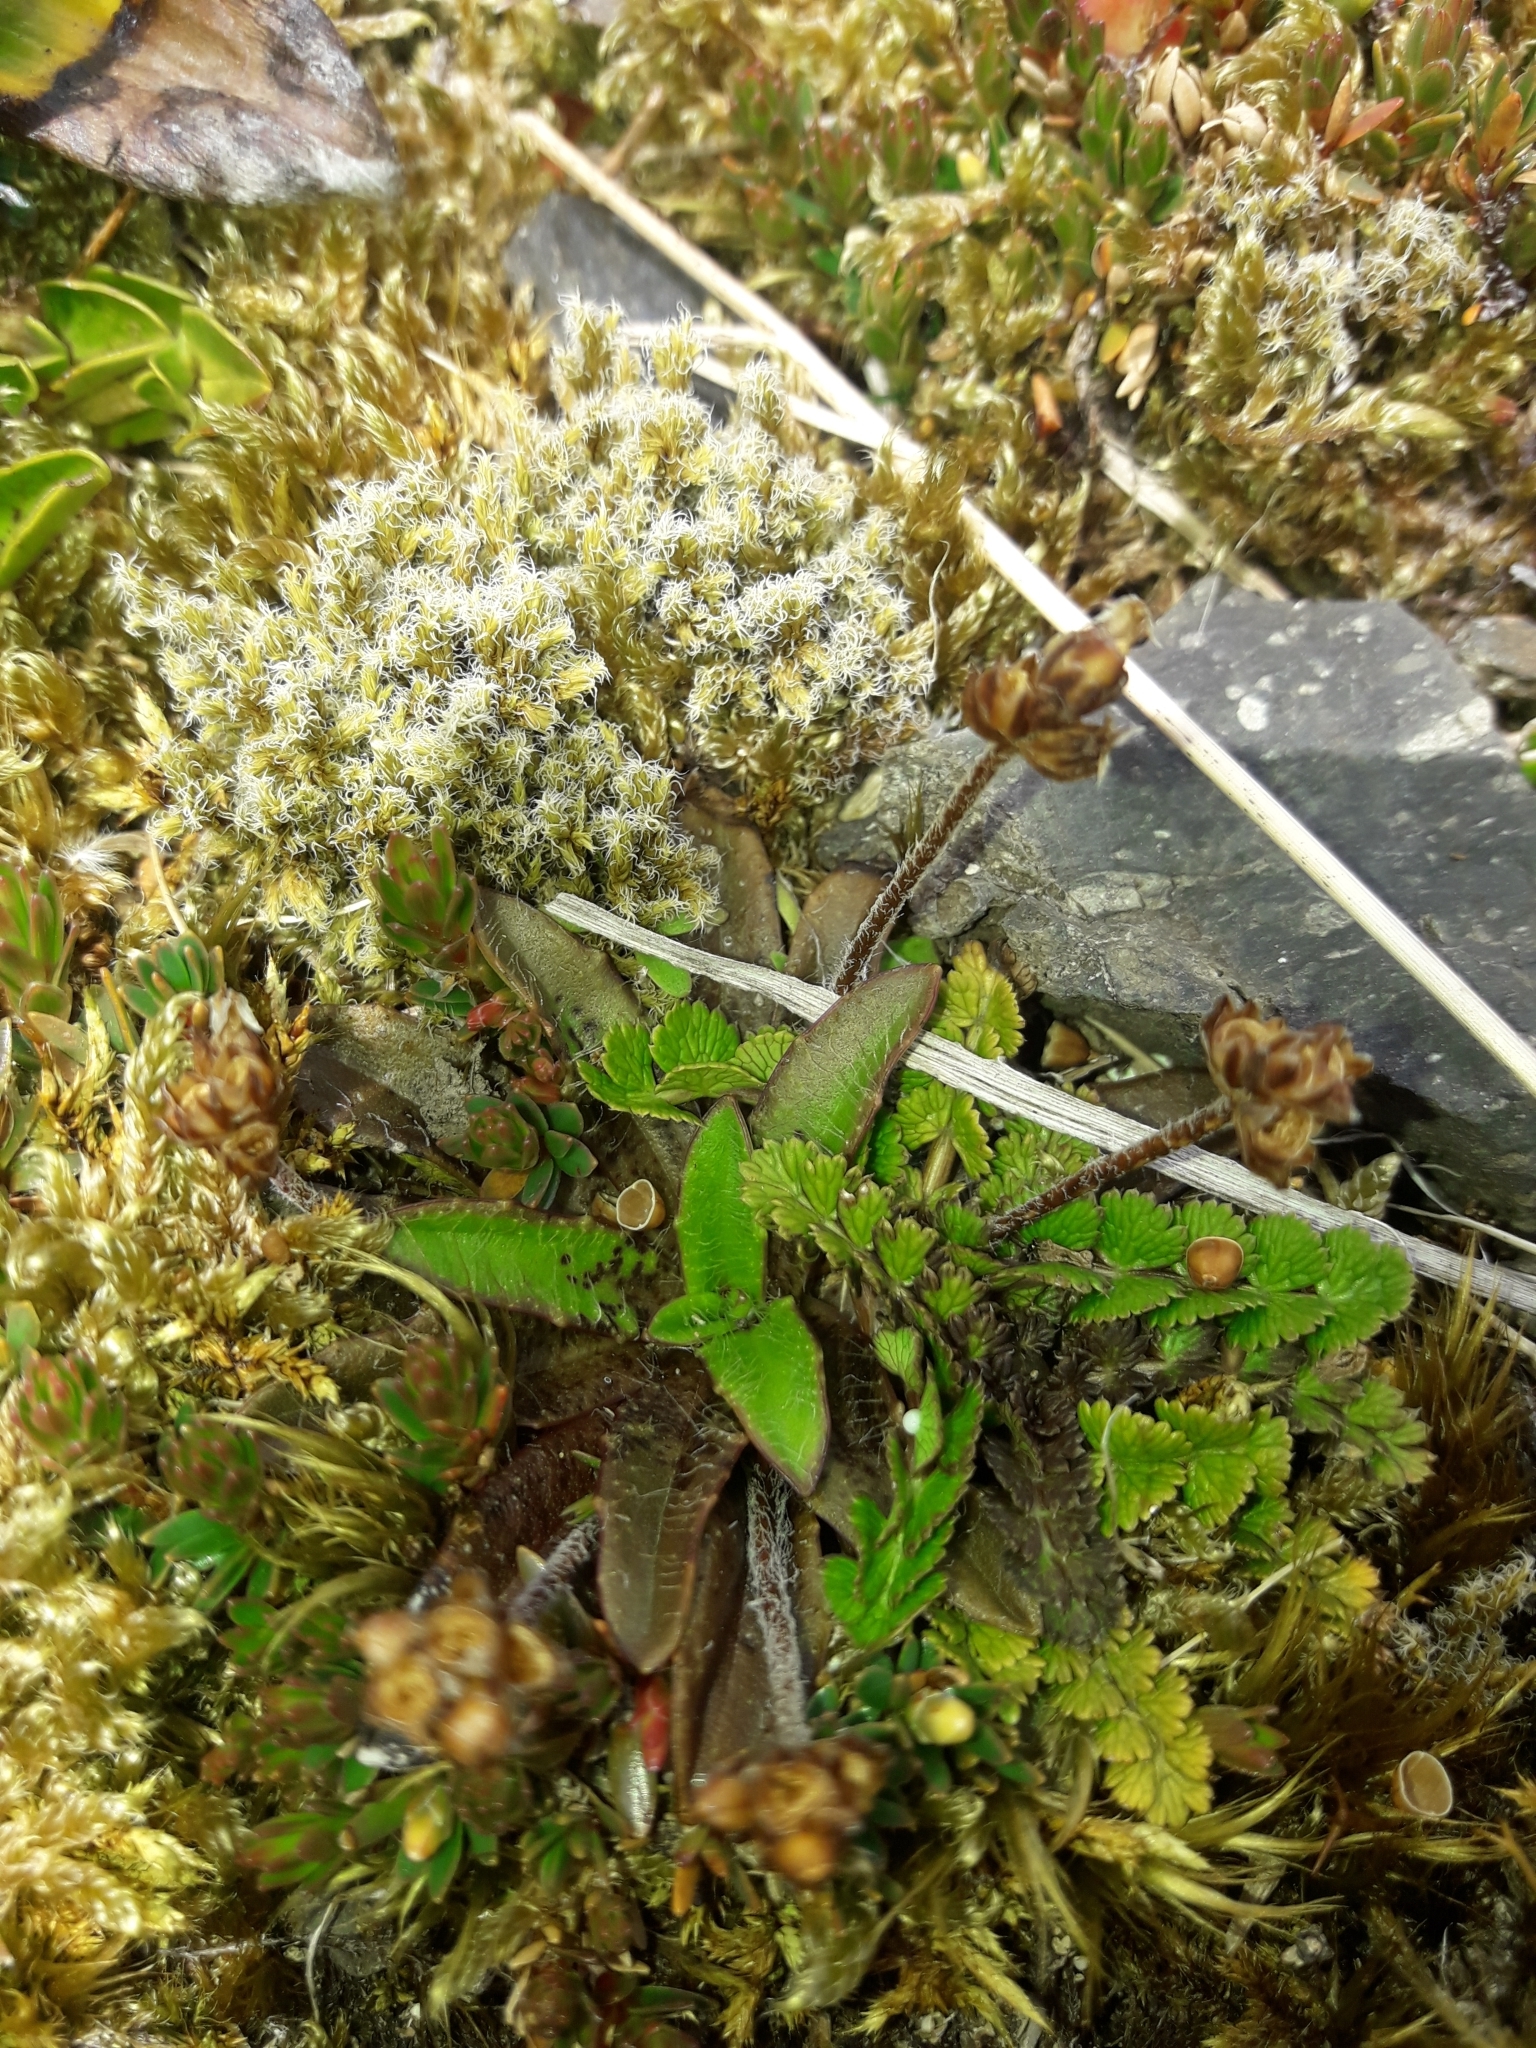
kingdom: Plantae
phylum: Tracheophyta
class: Magnoliopsida
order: Lamiales
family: Plantaginaceae
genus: Plantago
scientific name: Plantago lanigera
